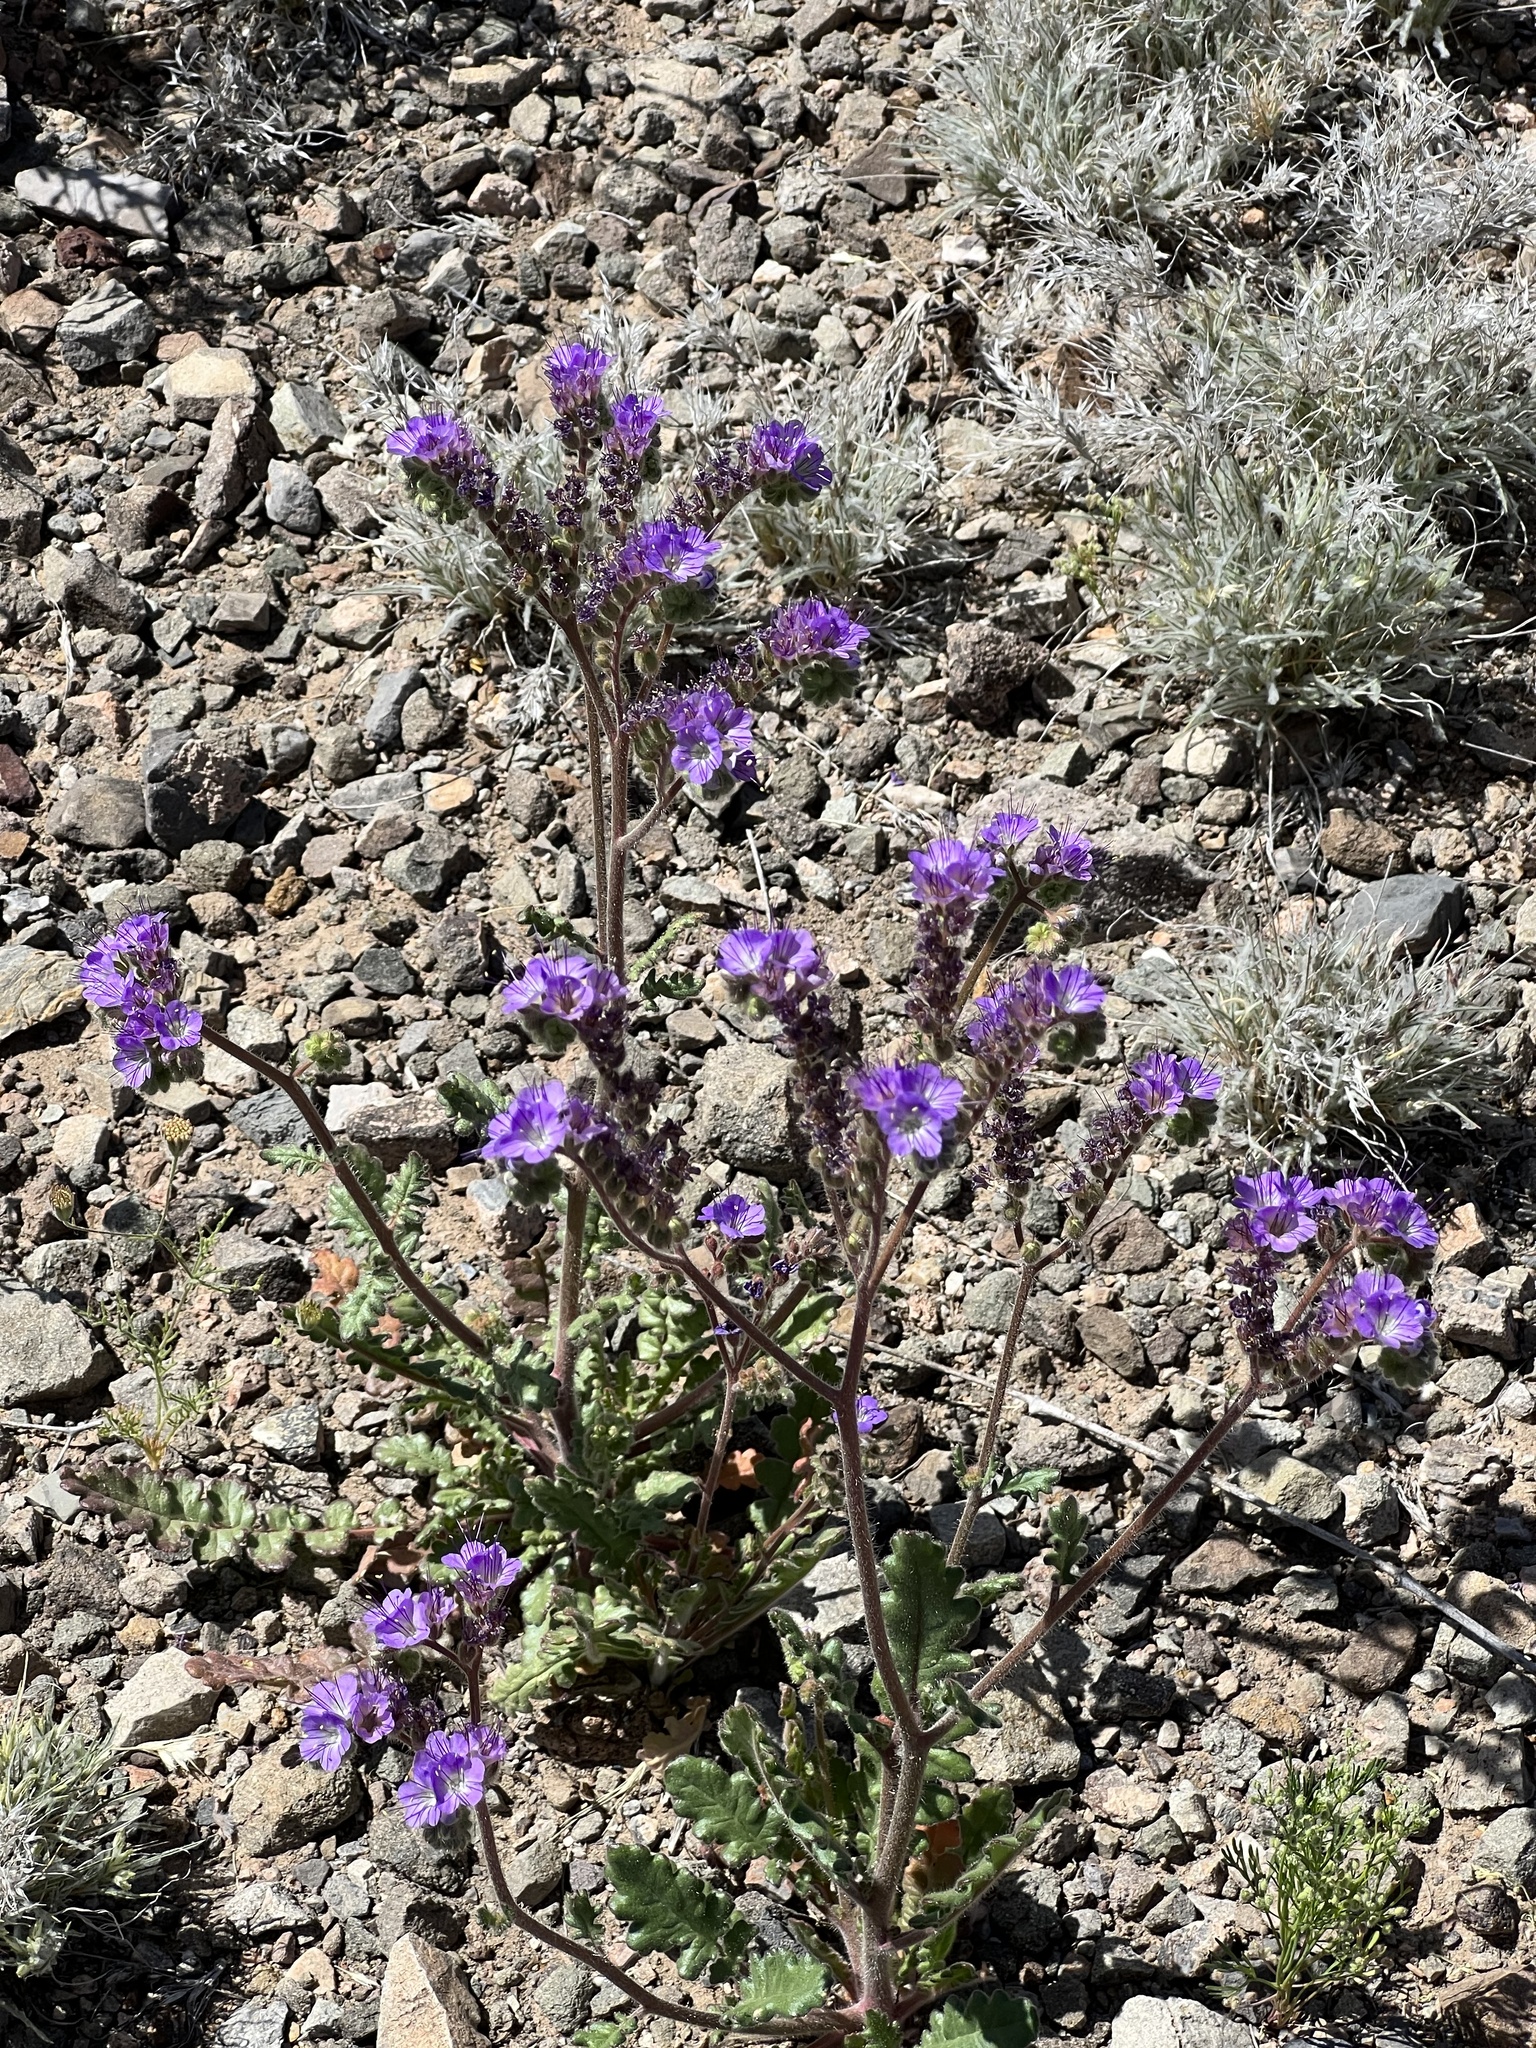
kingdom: Plantae
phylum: Tracheophyta
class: Magnoliopsida
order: Boraginales
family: Hydrophyllaceae
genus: Phacelia
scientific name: Phacelia crenulata
